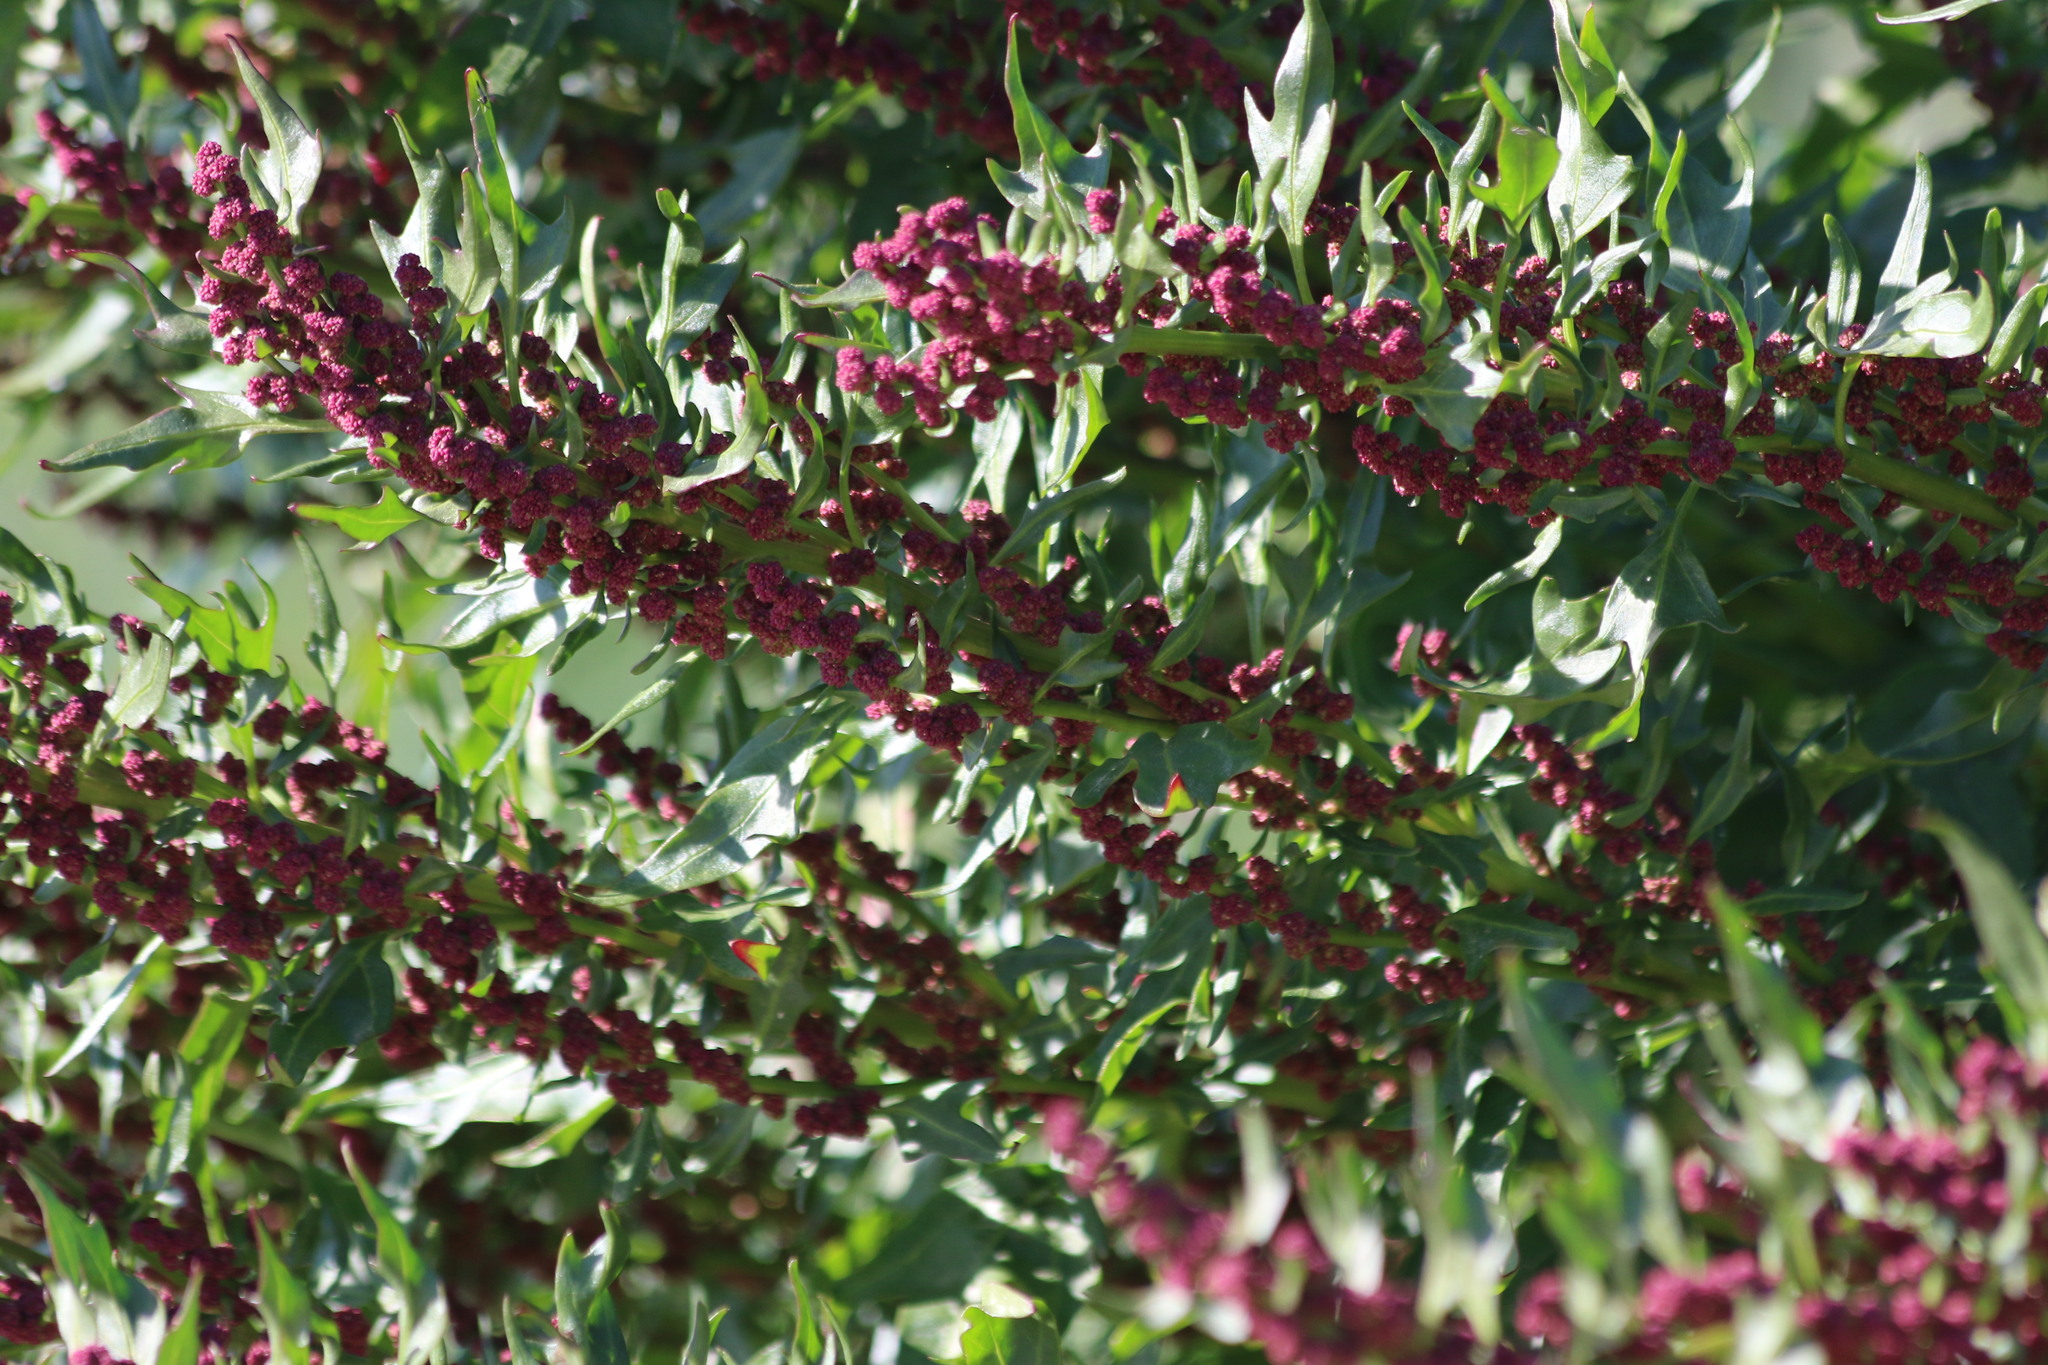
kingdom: Plantae
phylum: Tracheophyta
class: Magnoliopsida
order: Caryophyllales
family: Amaranthaceae
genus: Oxybasis
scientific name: Oxybasis rubra
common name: Red goosefoot
